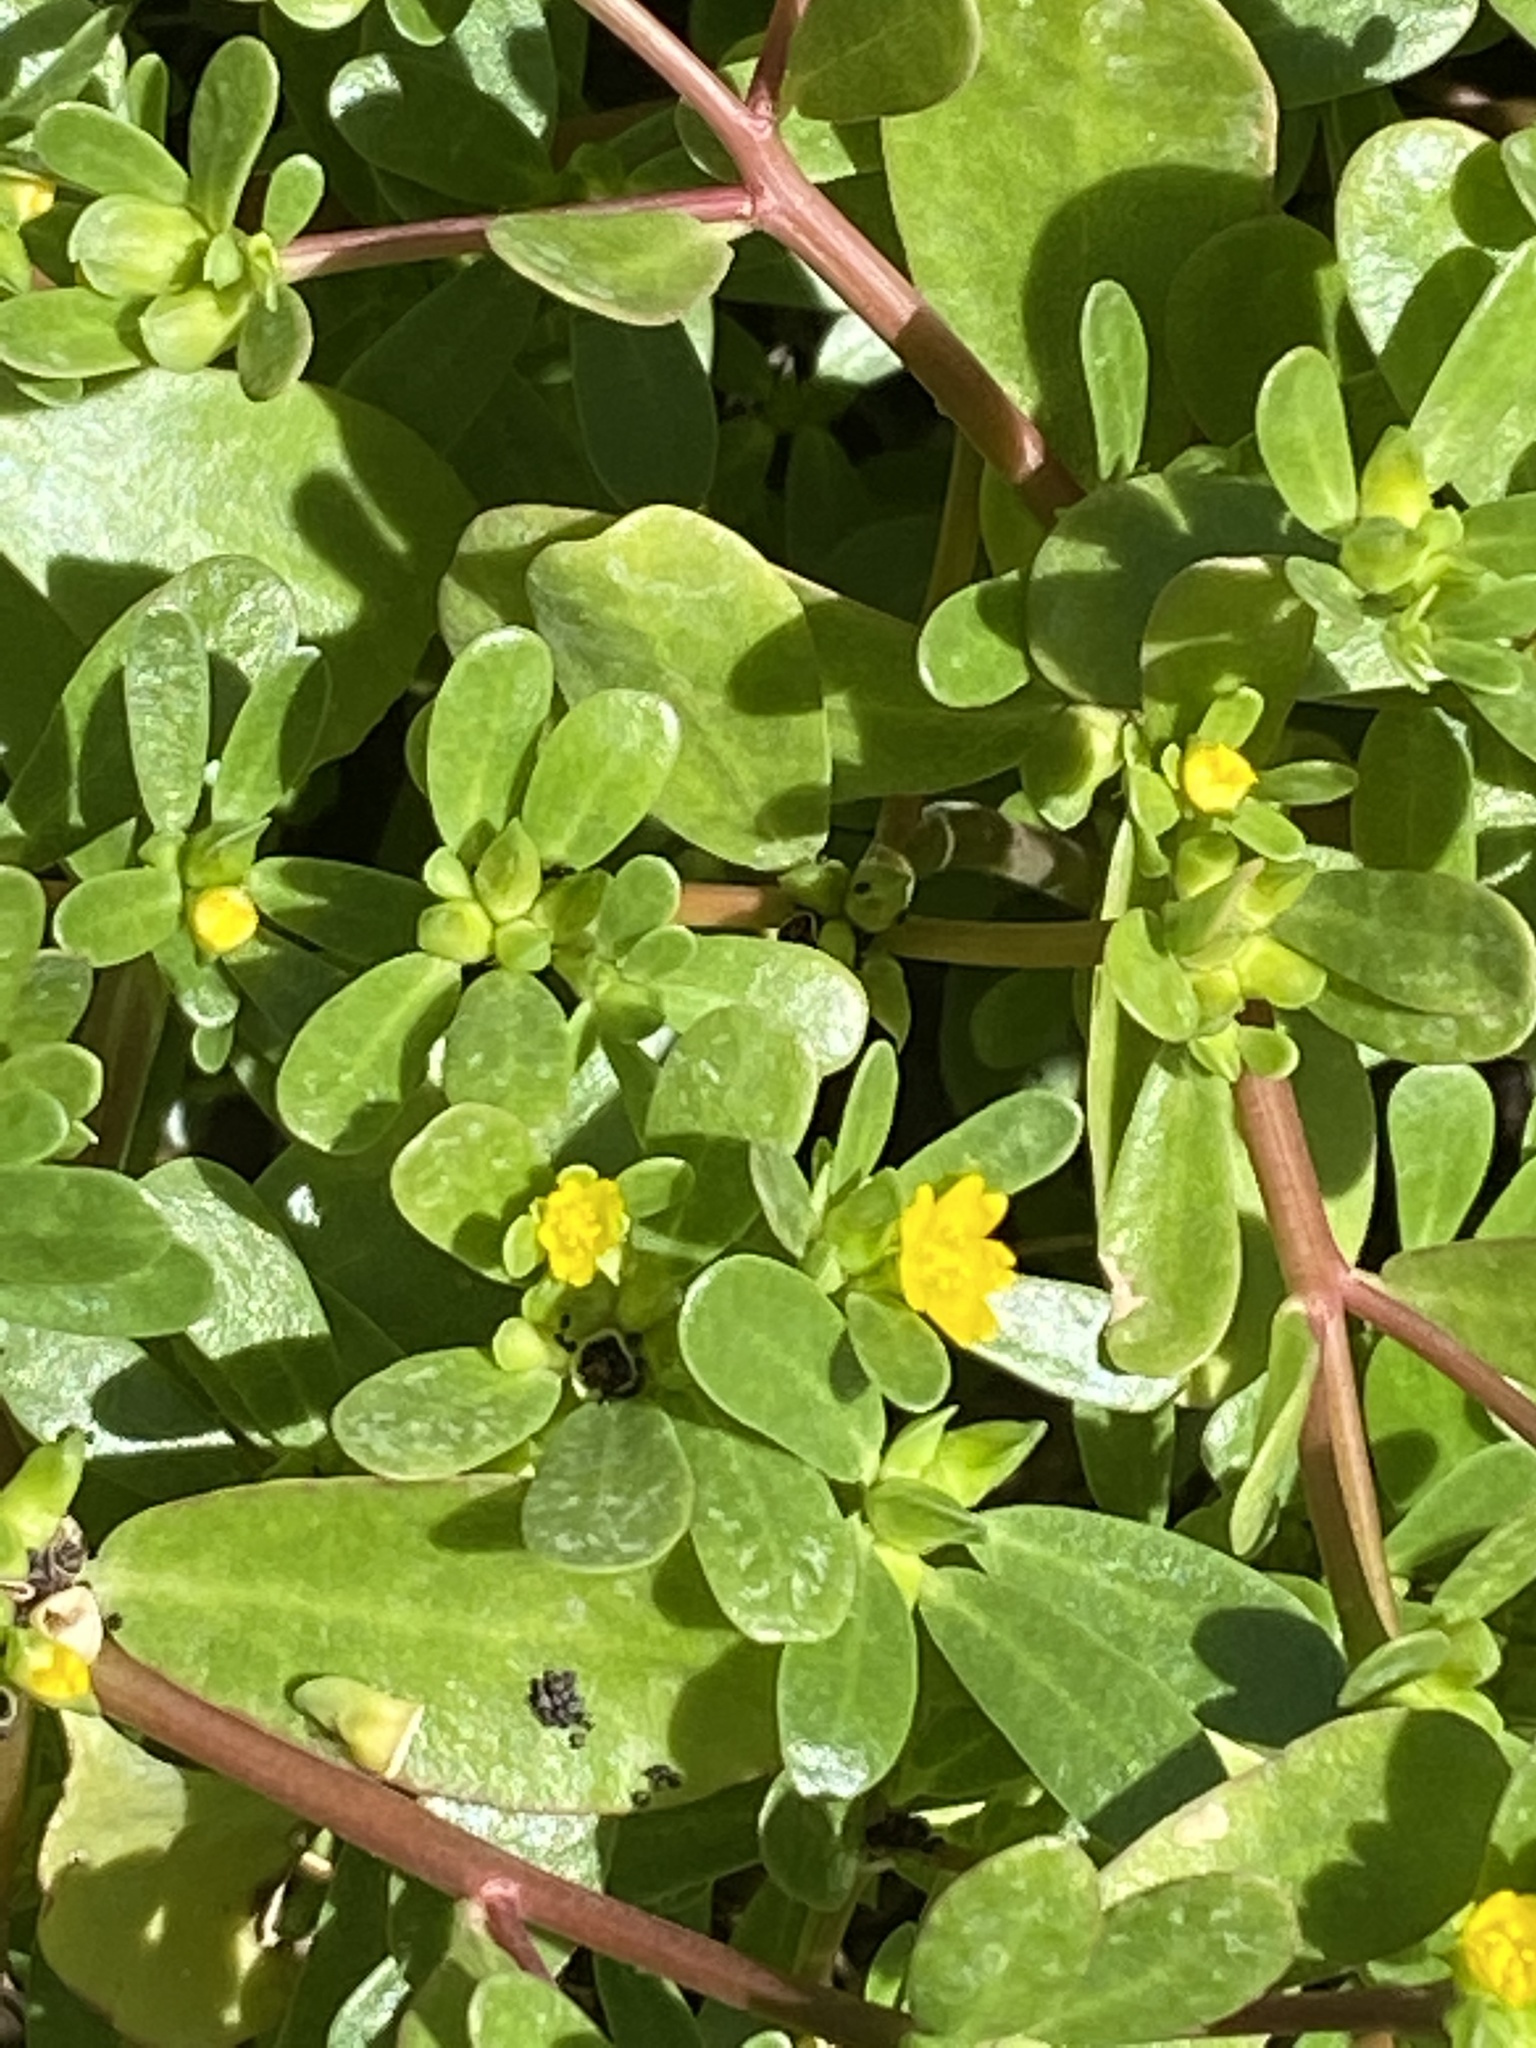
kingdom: Plantae
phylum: Tracheophyta
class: Magnoliopsida
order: Caryophyllales
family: Portulacaceae
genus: Portulaca
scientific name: Portulaca oleracea
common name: Common purslane
